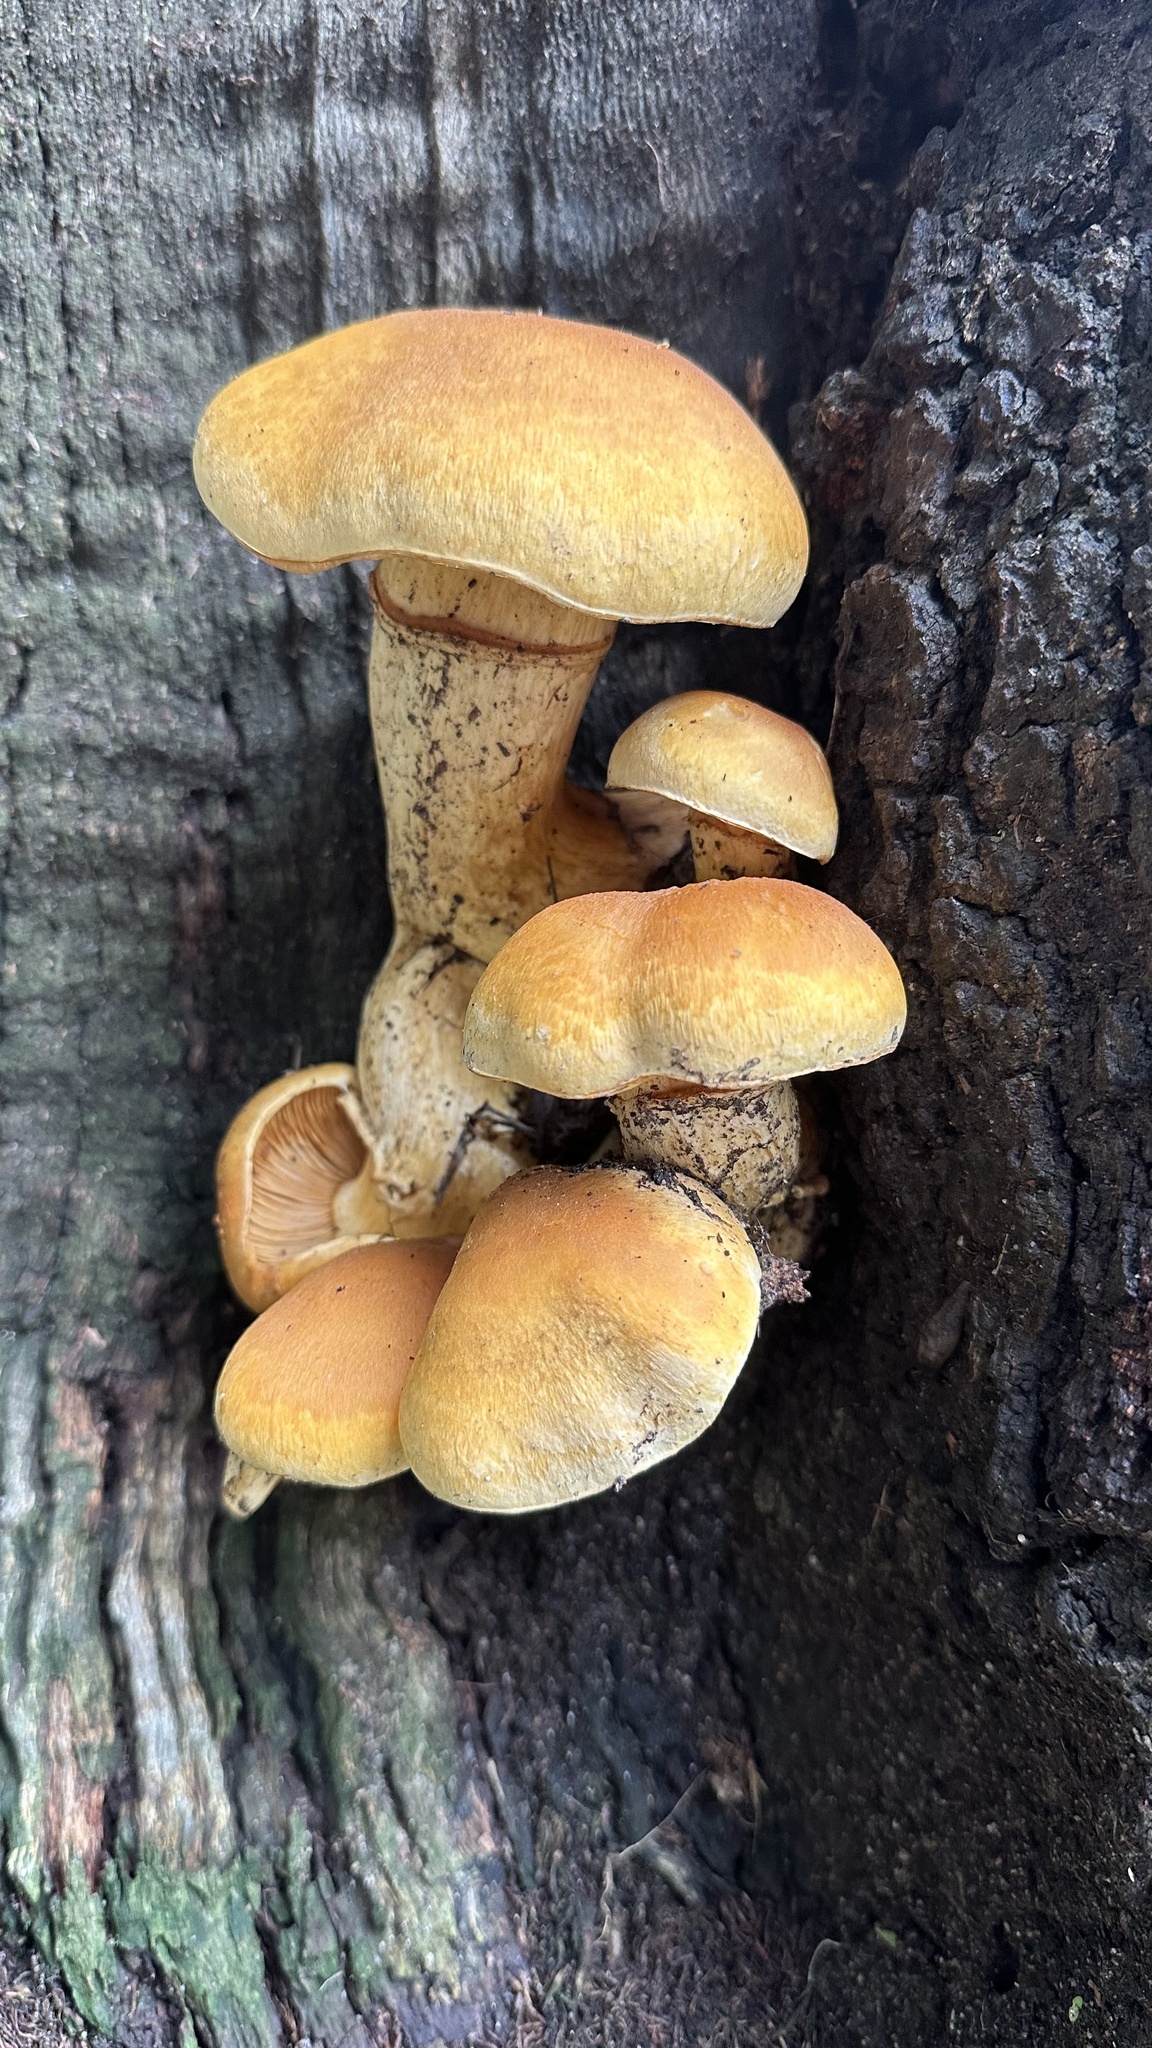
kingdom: Fungi
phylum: Basidiomycota
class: Agaricomycetes
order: Agaricales
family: Hymenogastraceae
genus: Gymnopilus
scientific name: Gymnopilus ventricosus
